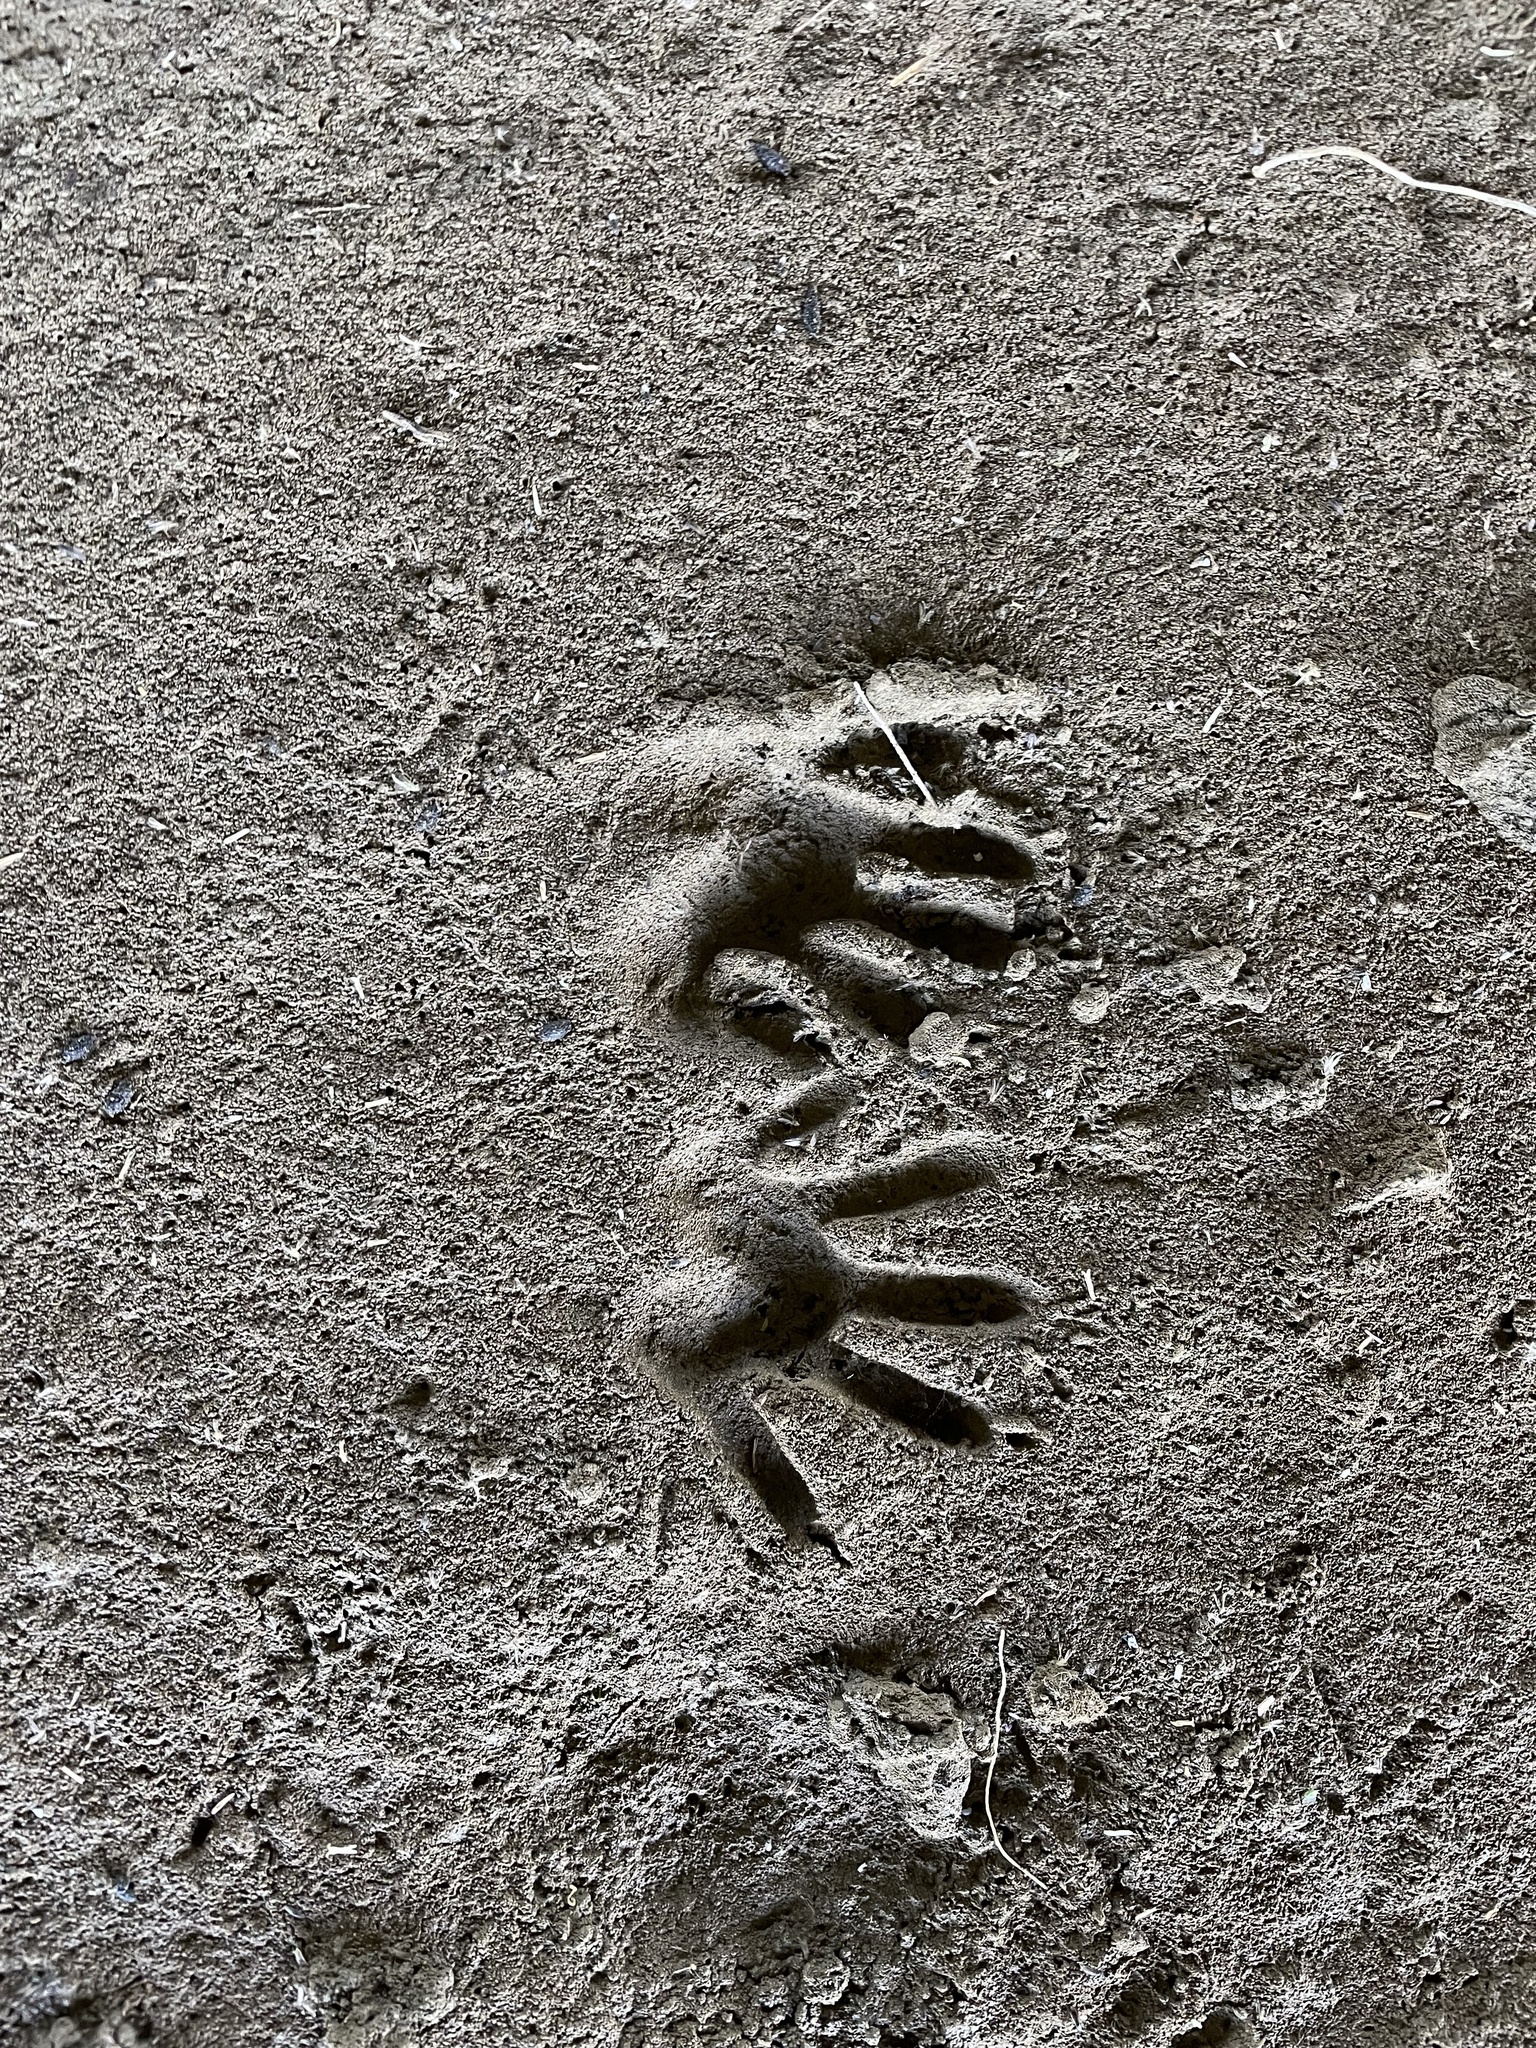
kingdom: Animalia
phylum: Chordata
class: Mammalia
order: Carnivora
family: Procyonidae
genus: Procyon
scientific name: Procyon lotor
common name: Raccoon
